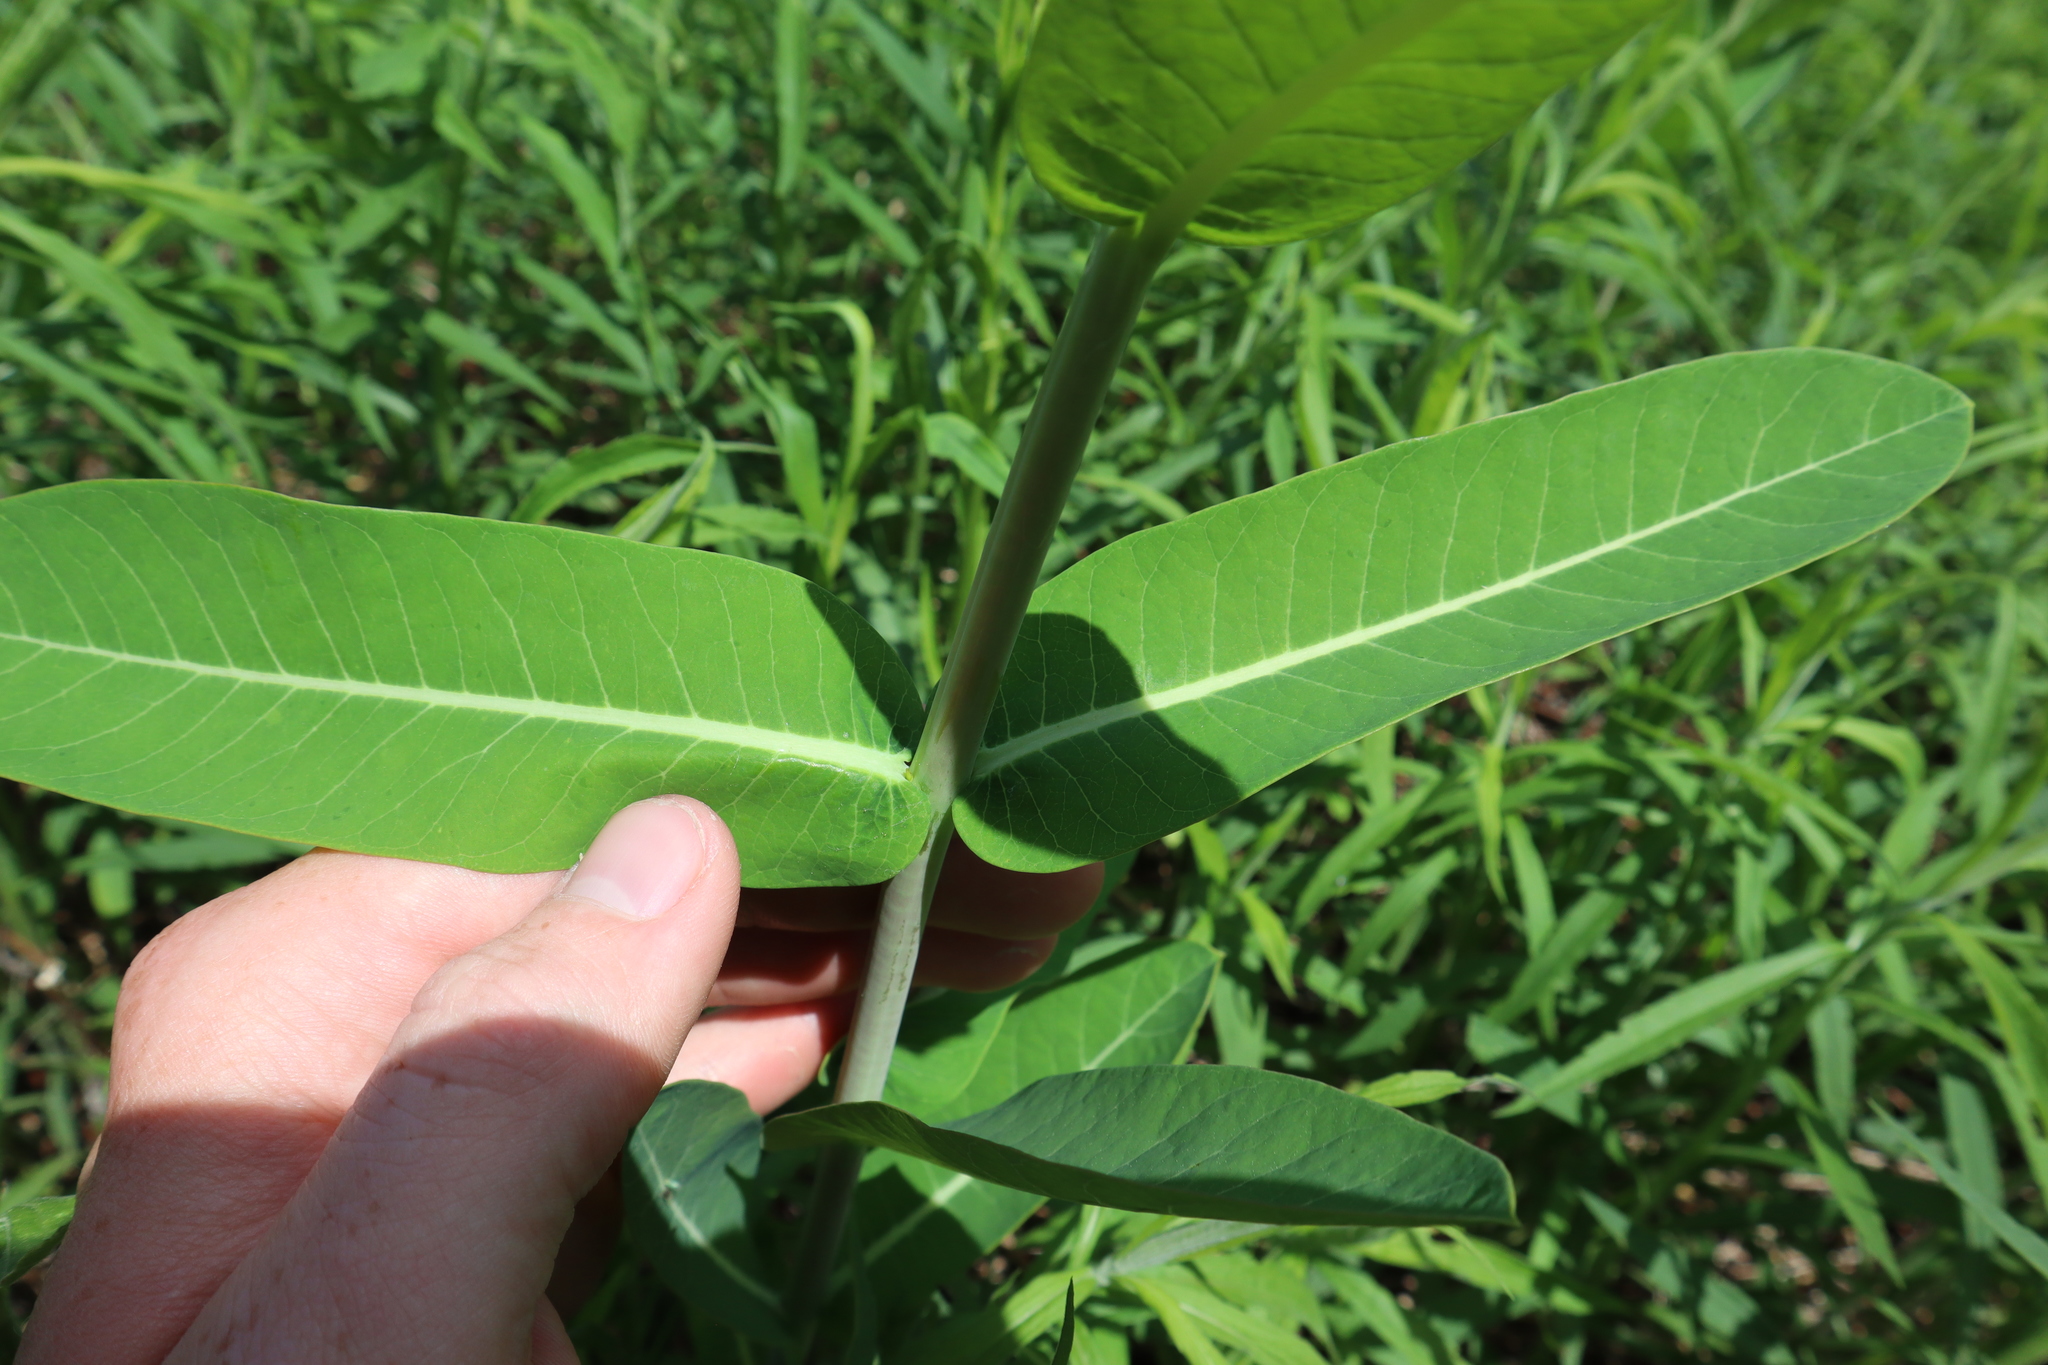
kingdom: Plantae
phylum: Tracheophyta
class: Magnoliopsida
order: Gentianales
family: Apocynaceae
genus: Apocynum
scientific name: Apocynum cannabinum
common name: Hemp dogbane
